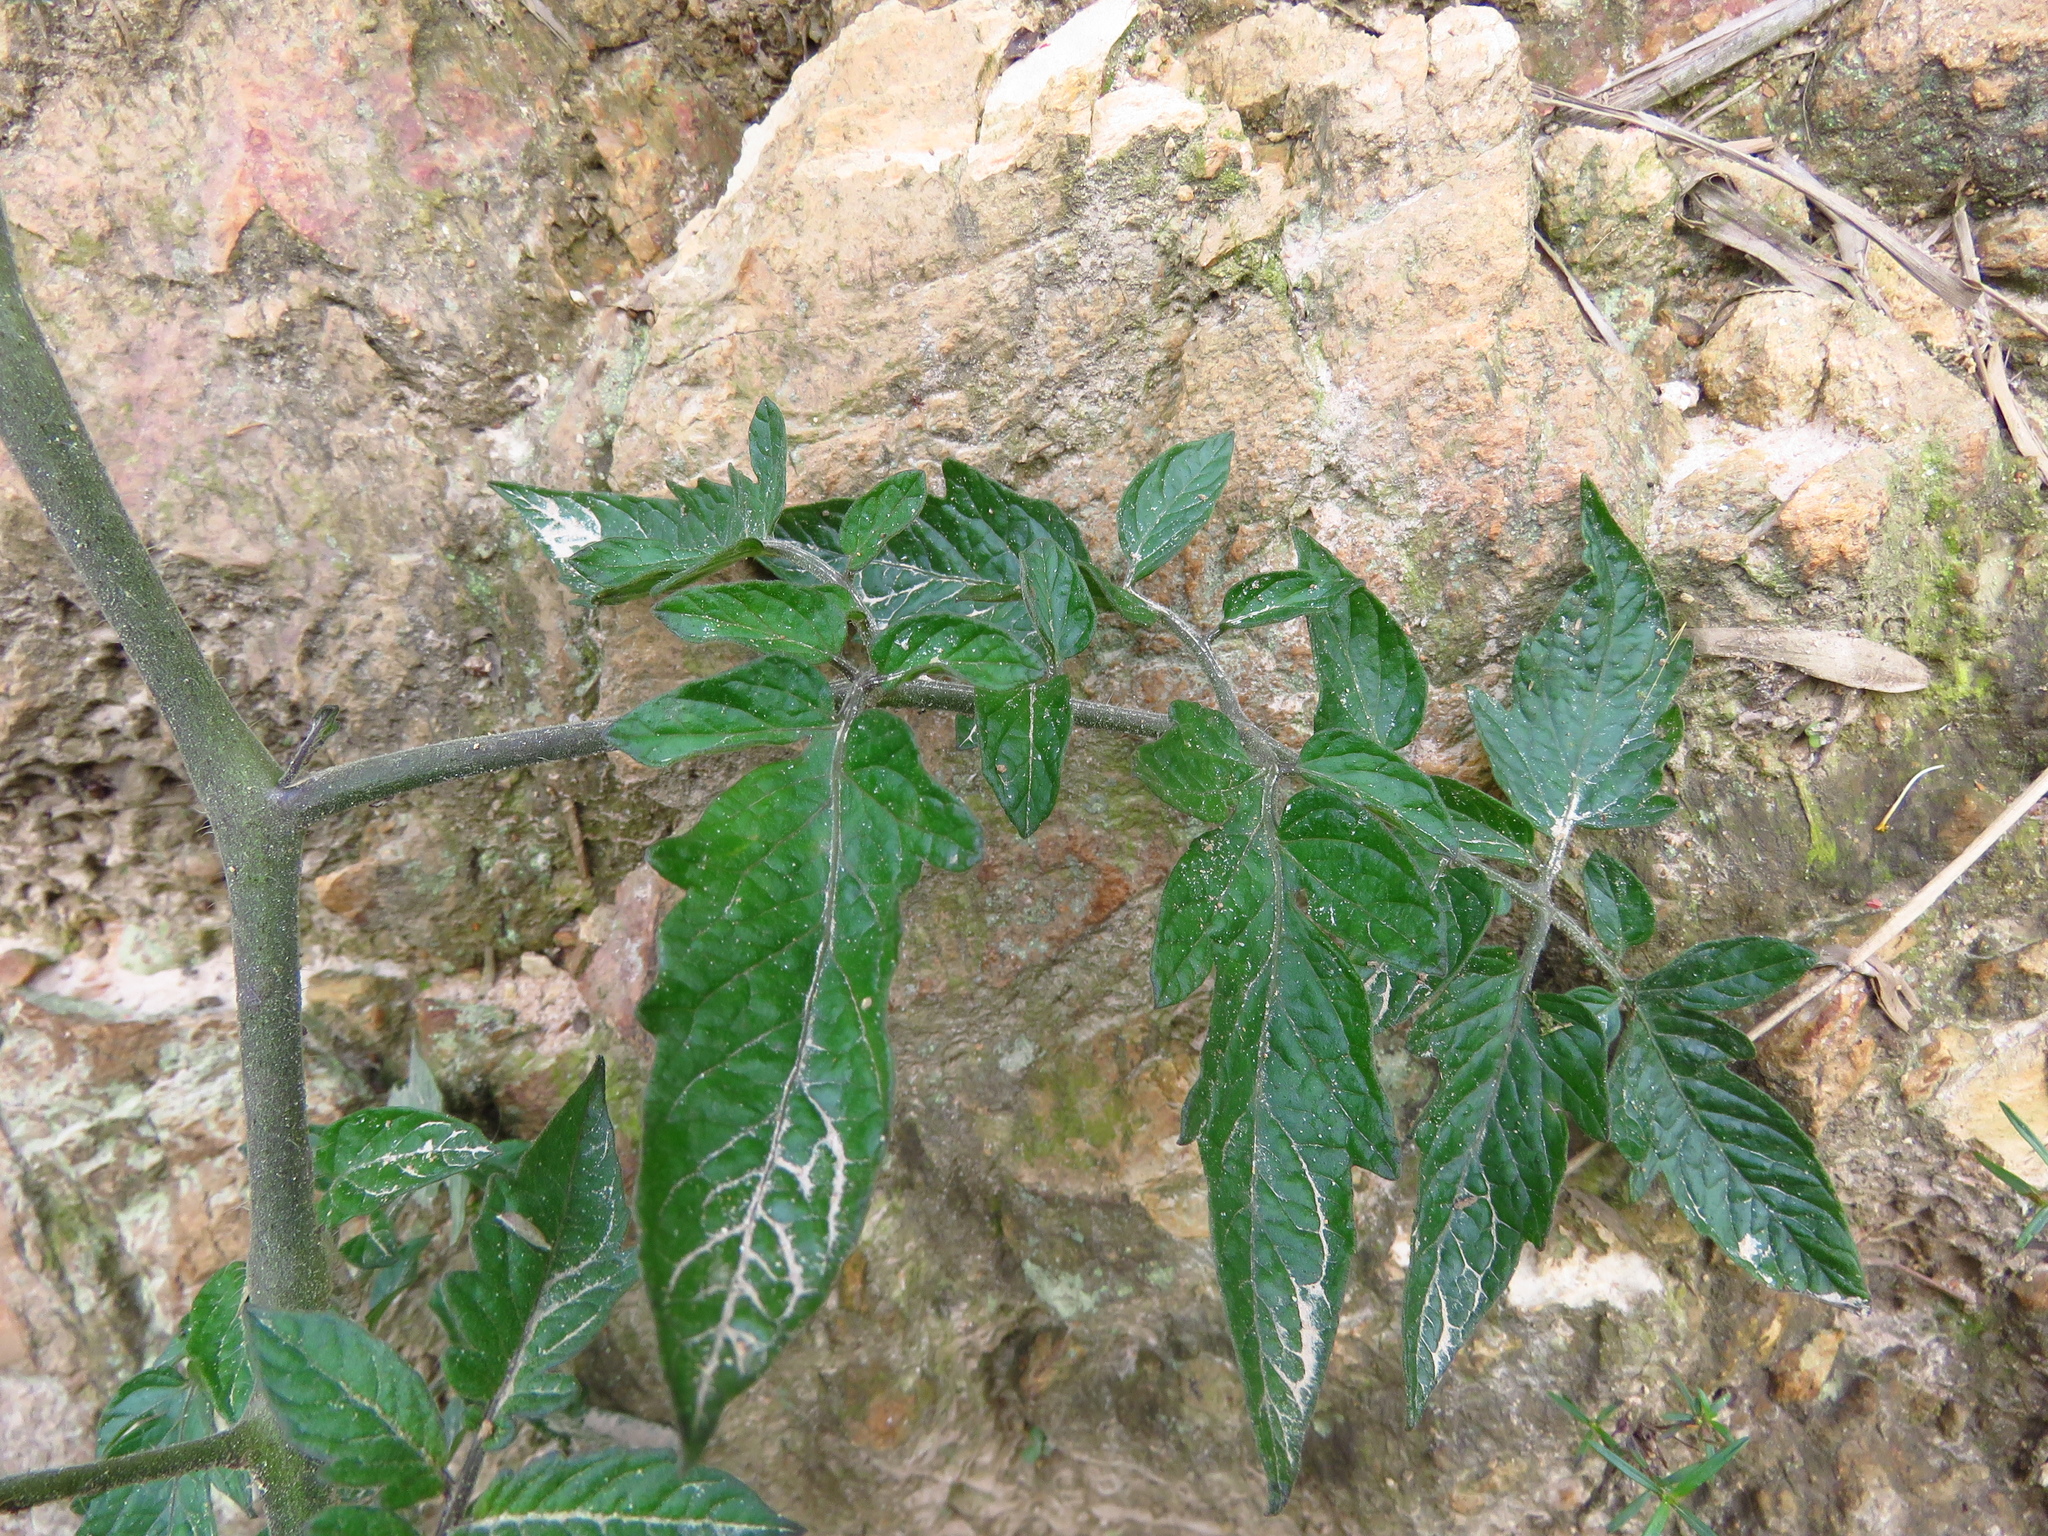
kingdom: Plantae
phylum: Tracheophyta
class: Magnoliopsida
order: Solanales
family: Solanaceae
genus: Solanum
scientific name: Solanum lycopersicum
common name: Garden tomato
